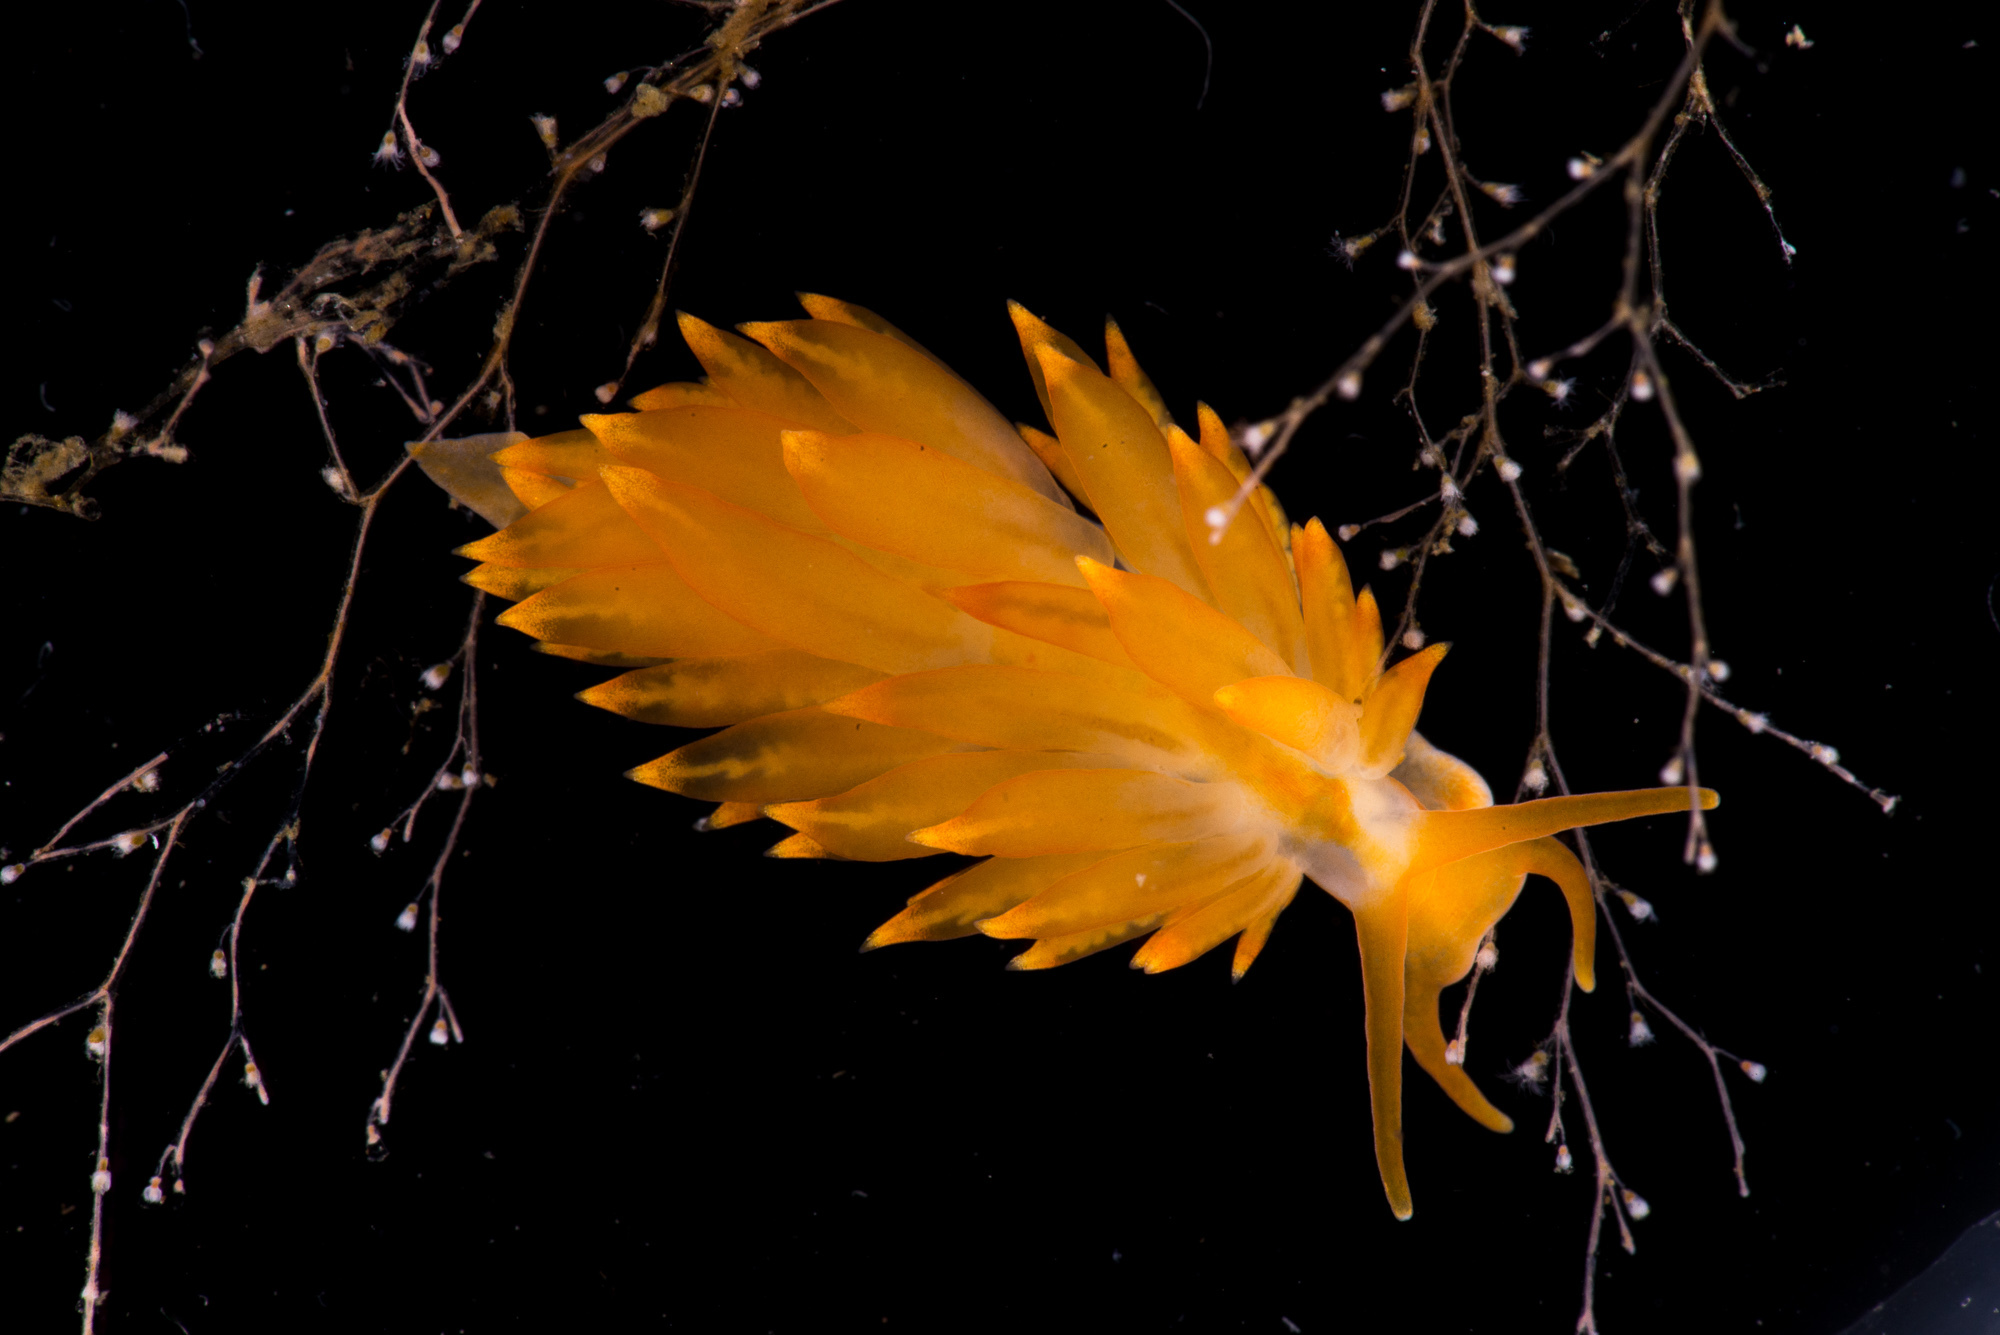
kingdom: Animalia
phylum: Mollusca
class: Gastropoda
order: Nudibranchia
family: Eubranchidae
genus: Amphorina
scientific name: Amphorina andra
